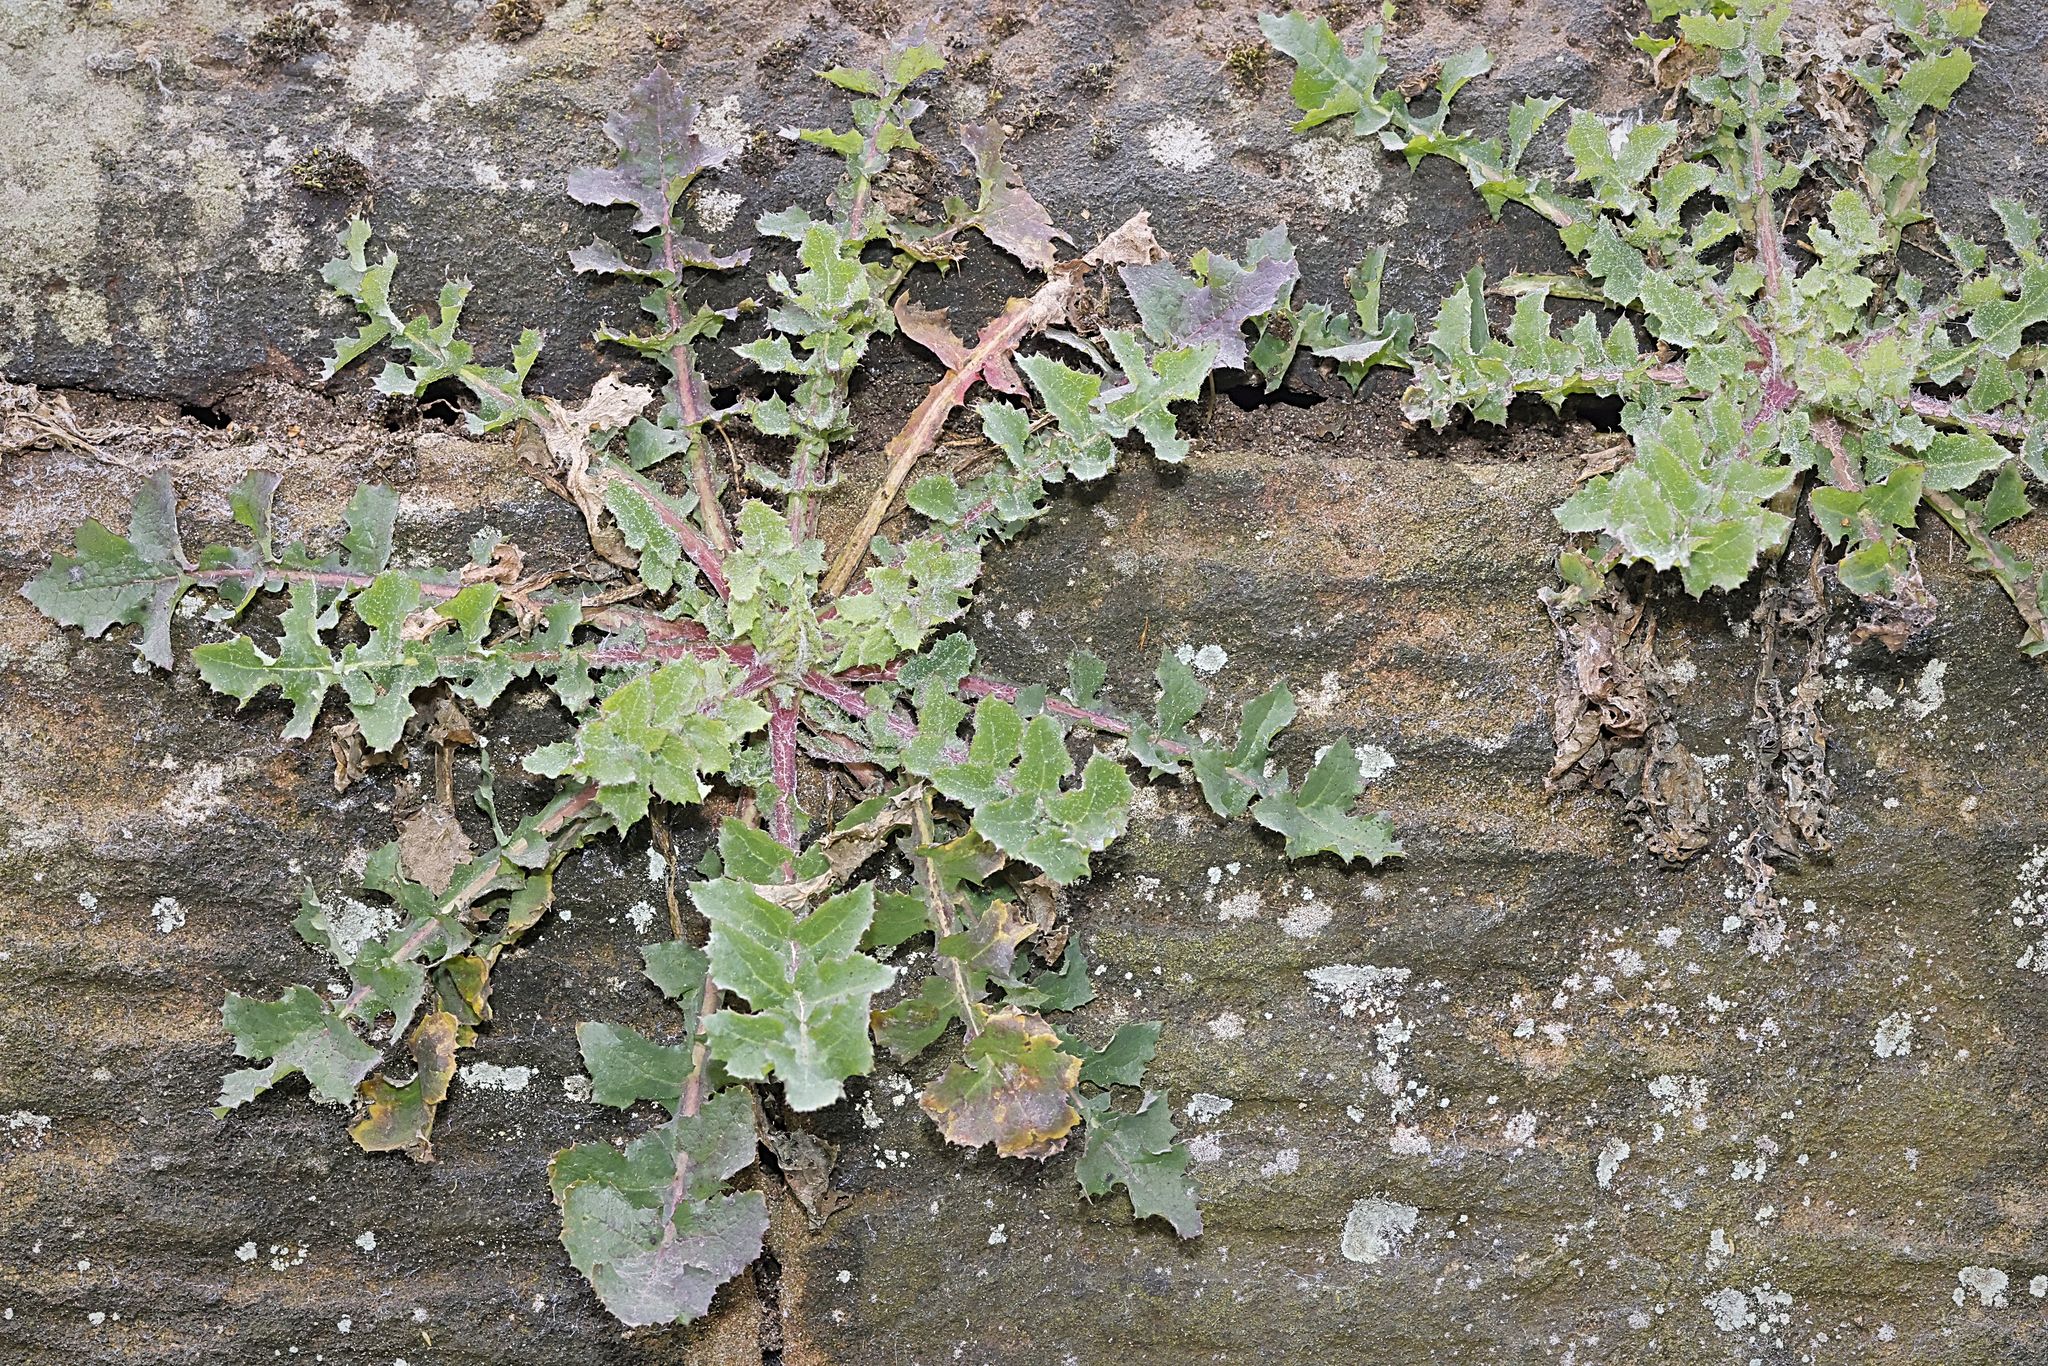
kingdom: Plantae
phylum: Tracheophyta
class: Magnoliopsida
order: Asterales
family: Asteraceae
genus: Sonchus
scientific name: Sonchus oleraceus
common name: Common sowthistle
